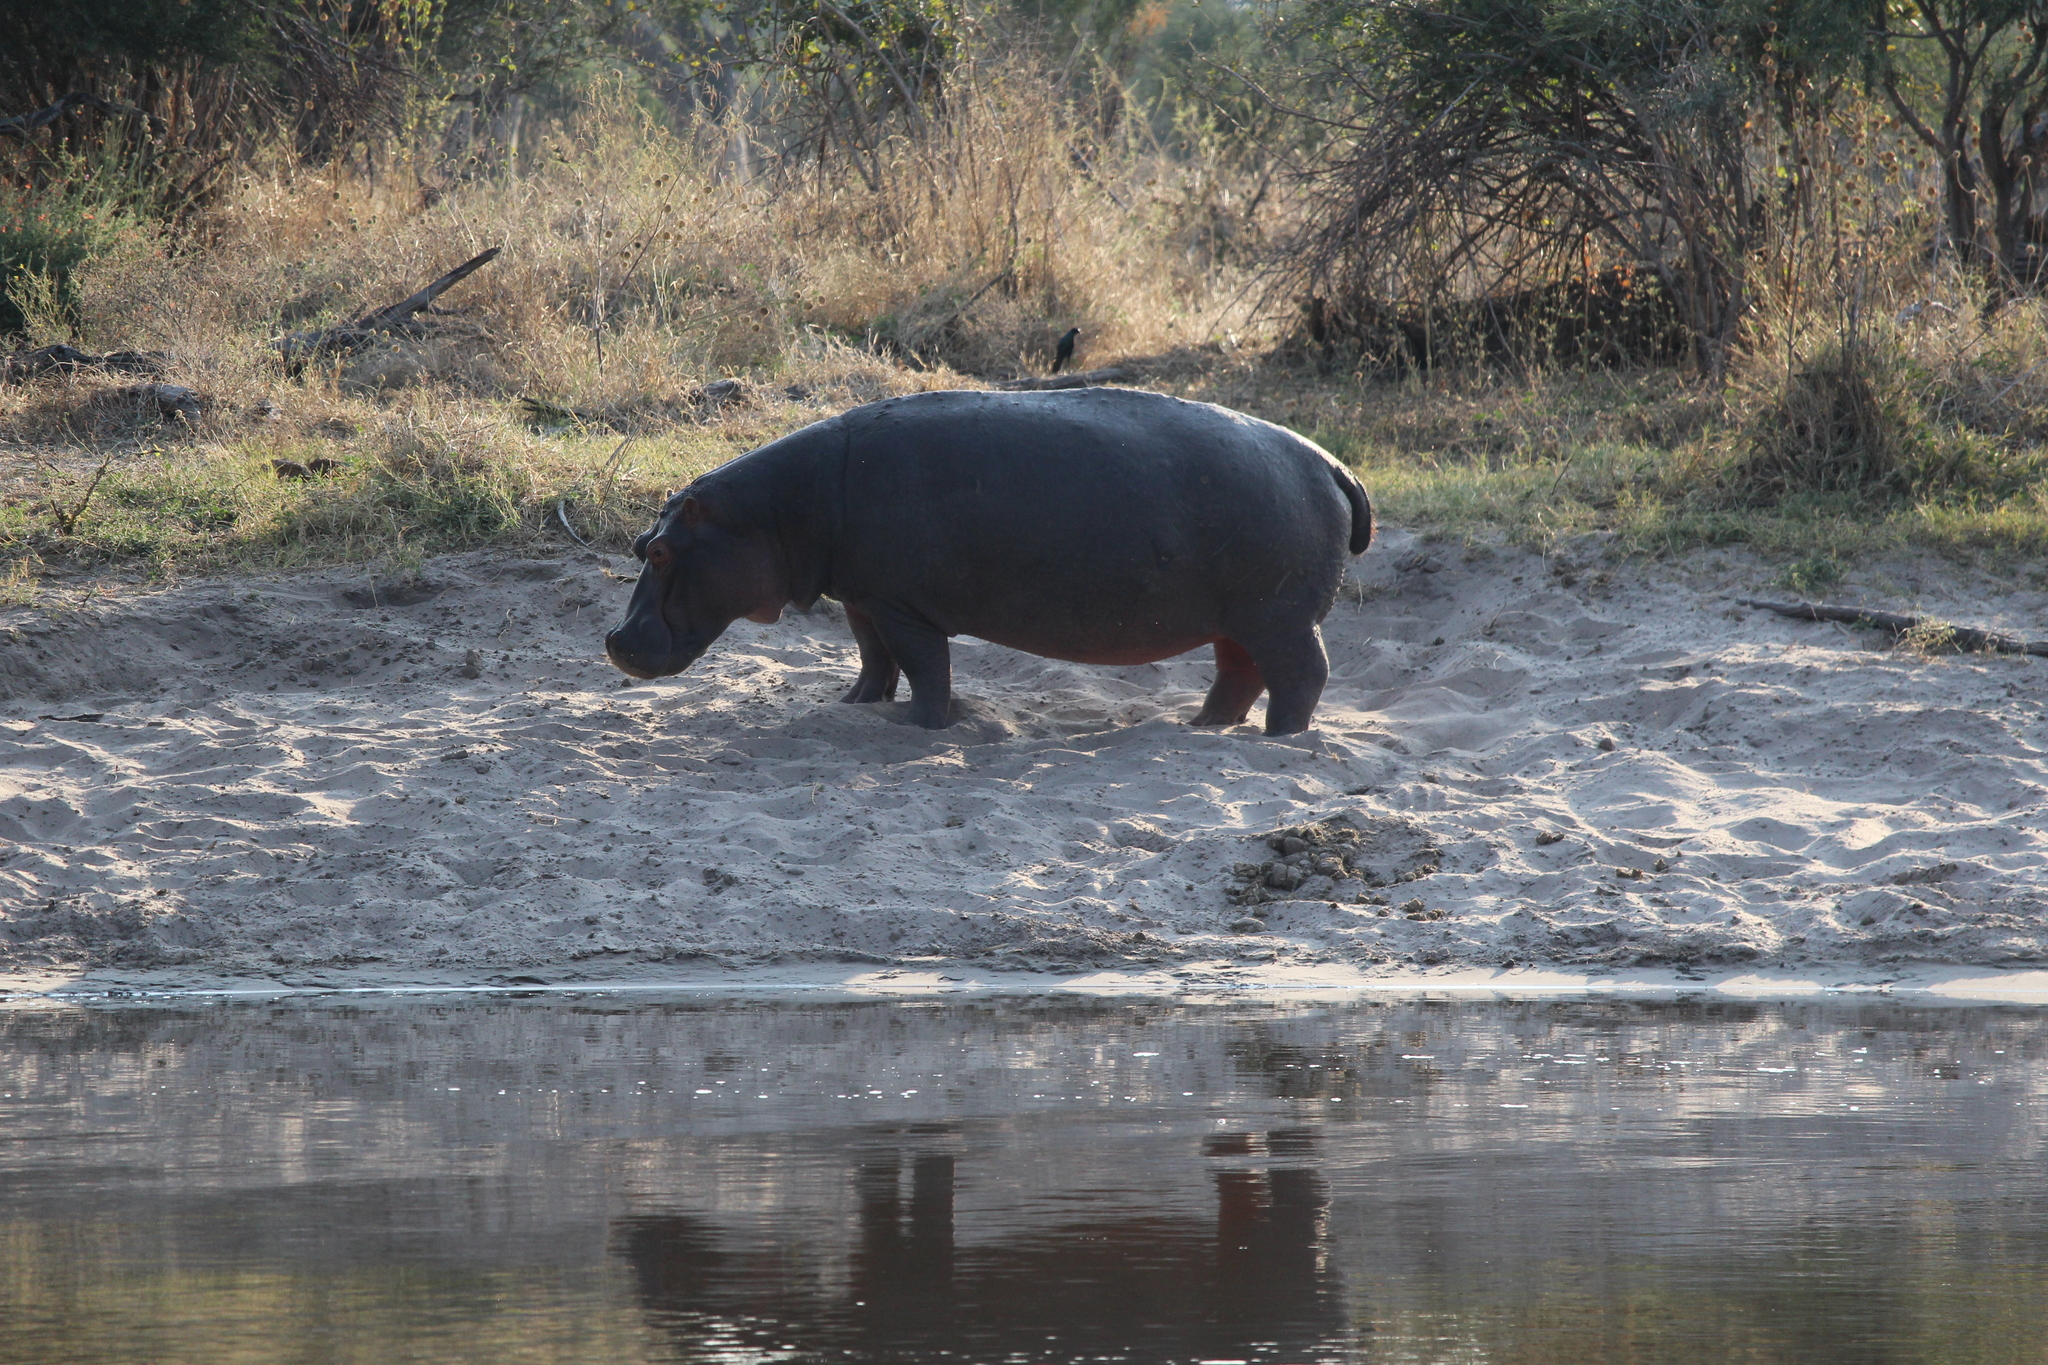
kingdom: Animalia
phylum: Chordata
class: Mammalia
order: Artiodactyla
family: Hippopotamidae
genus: Hippopotamus
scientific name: Hippopotamus amphibius
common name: Common hippopotamus
